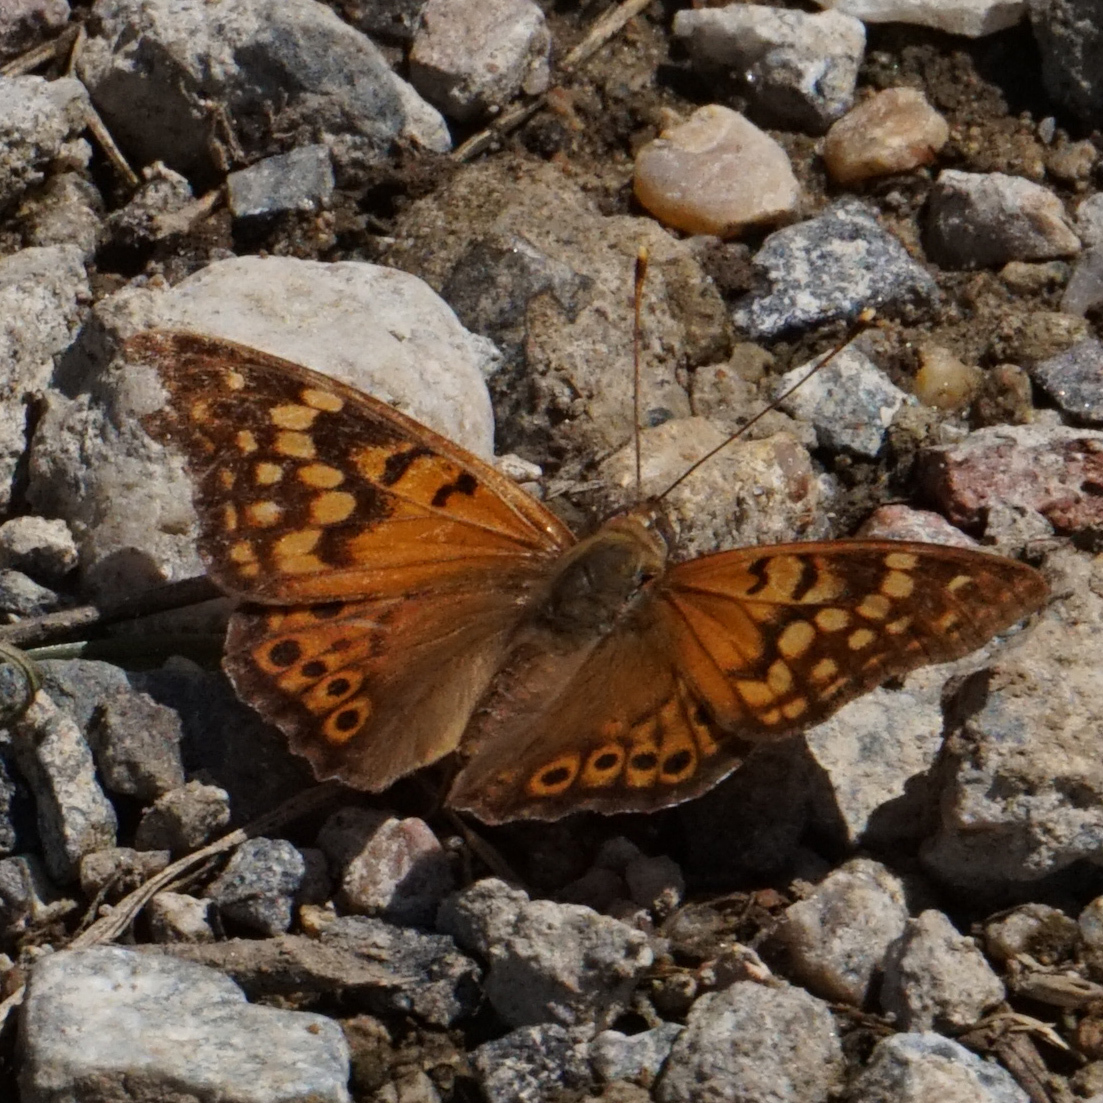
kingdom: Animalia
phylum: Arthropoda
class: Insecta
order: Lepidoptera
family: Nymphalidae
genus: Asterocampa
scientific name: Asterocampa clyton
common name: Tawny emperor
